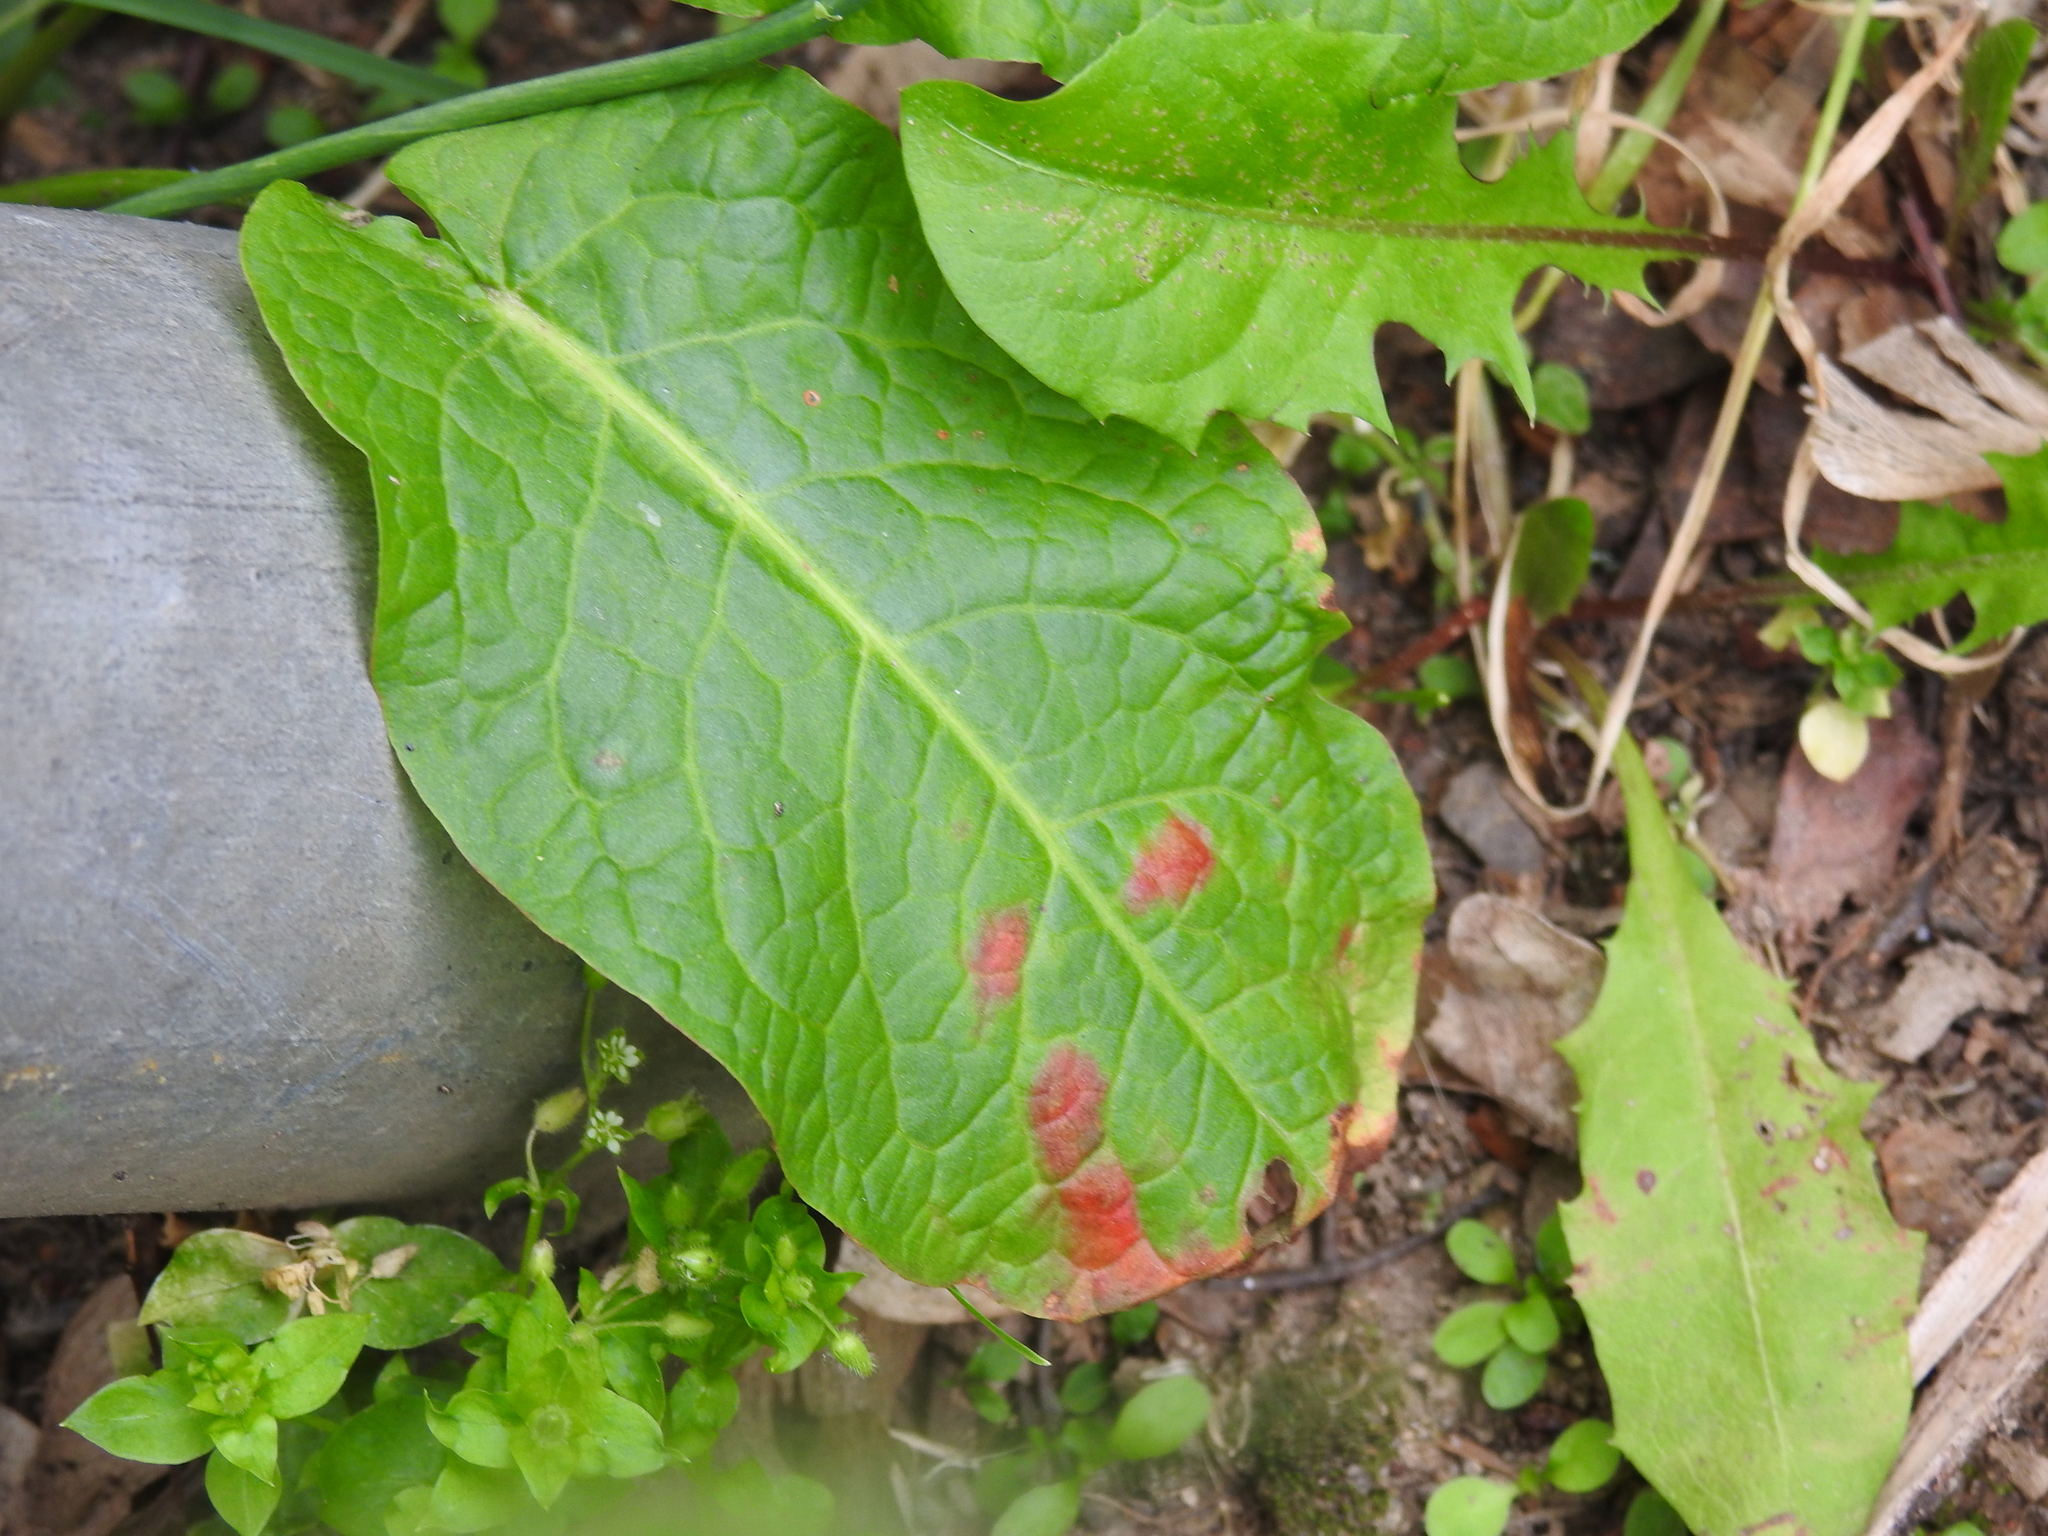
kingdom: Fungi
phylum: Ascomycota
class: Dothideomycetes
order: Mycosphaerellales
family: Mycosphaerellaceae
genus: Ramularia
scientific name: Ramularia rubella
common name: Red dock spot
